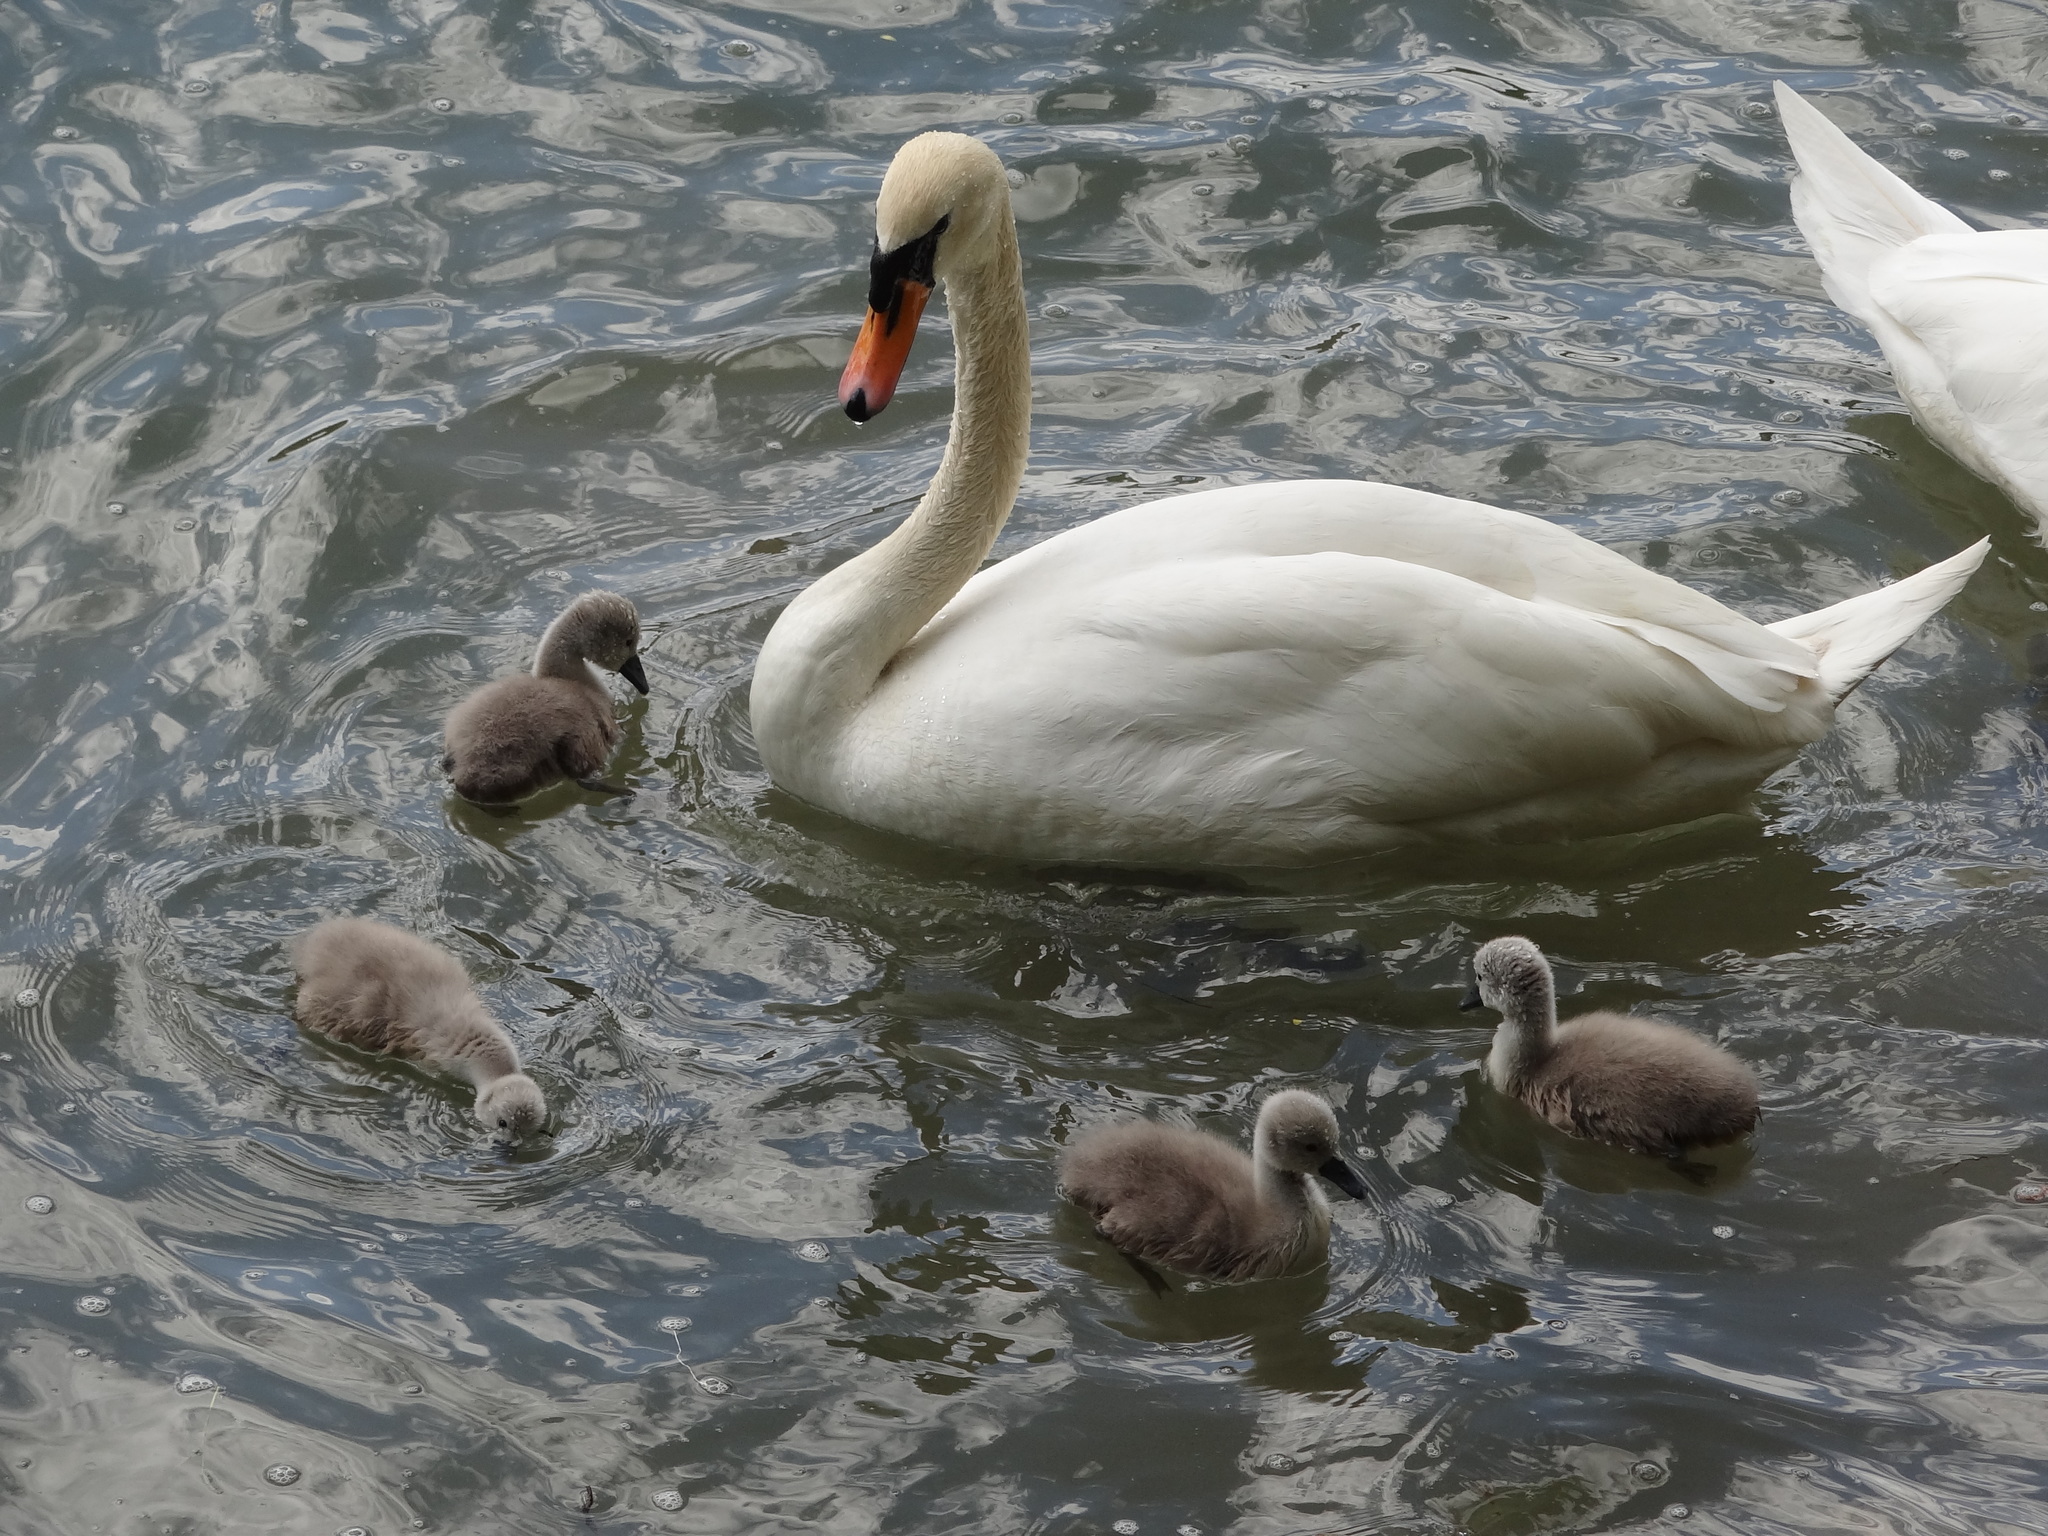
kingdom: Animalia
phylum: Chordata
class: Aves
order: Anseriformes
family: Anatidae
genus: Cygnus
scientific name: Cygnus olor
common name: Mute swan
